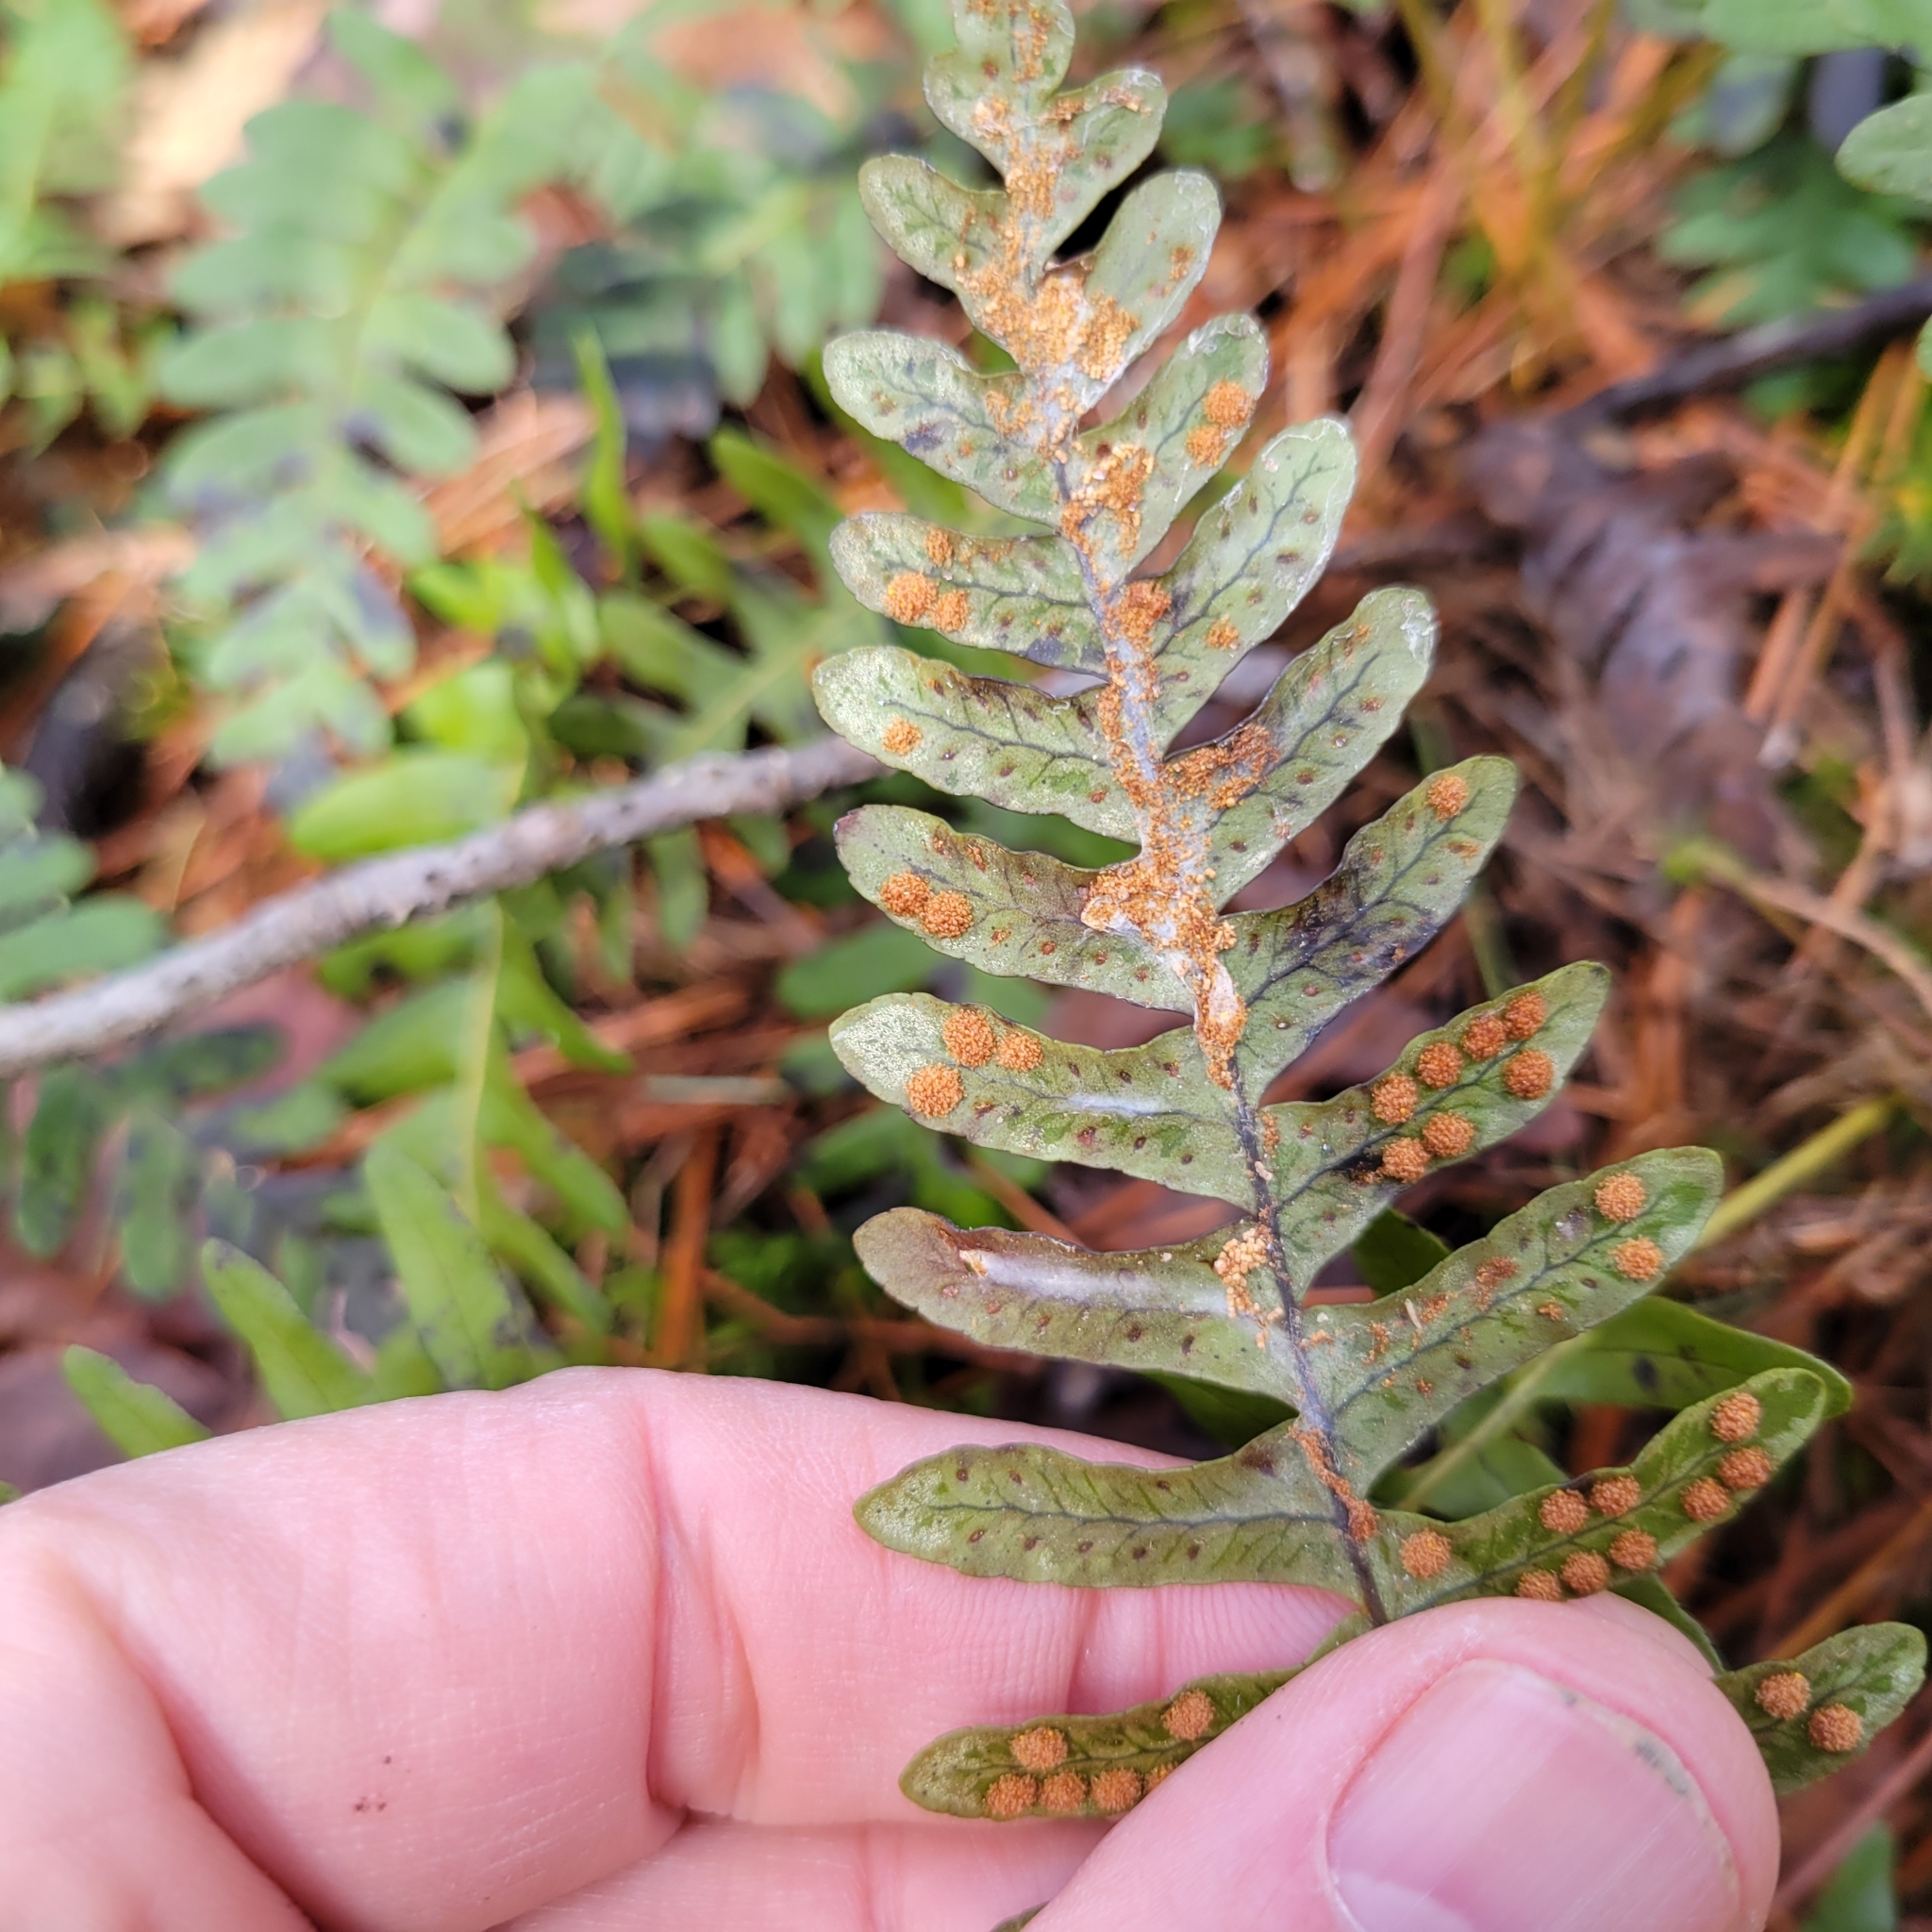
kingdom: Plantae
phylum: Tracheophyta
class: Polypodiopsida
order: Polypodiales
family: Polypodiaceae
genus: Polypodium
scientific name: Polypodium virginianum
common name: American wall fern
